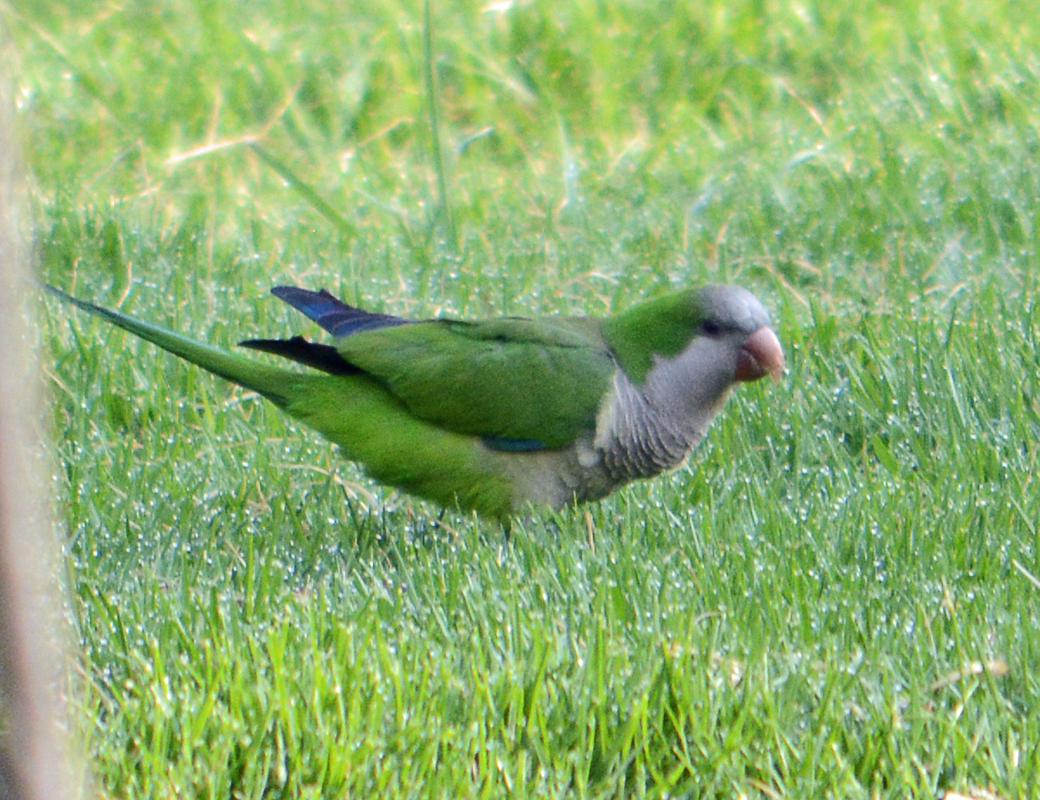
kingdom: Animalia
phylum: Chordata
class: Aves
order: Psittaciformes
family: Psittacidae
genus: Myiopsitta
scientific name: Myiopsitta monachus
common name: Monk parakeet
